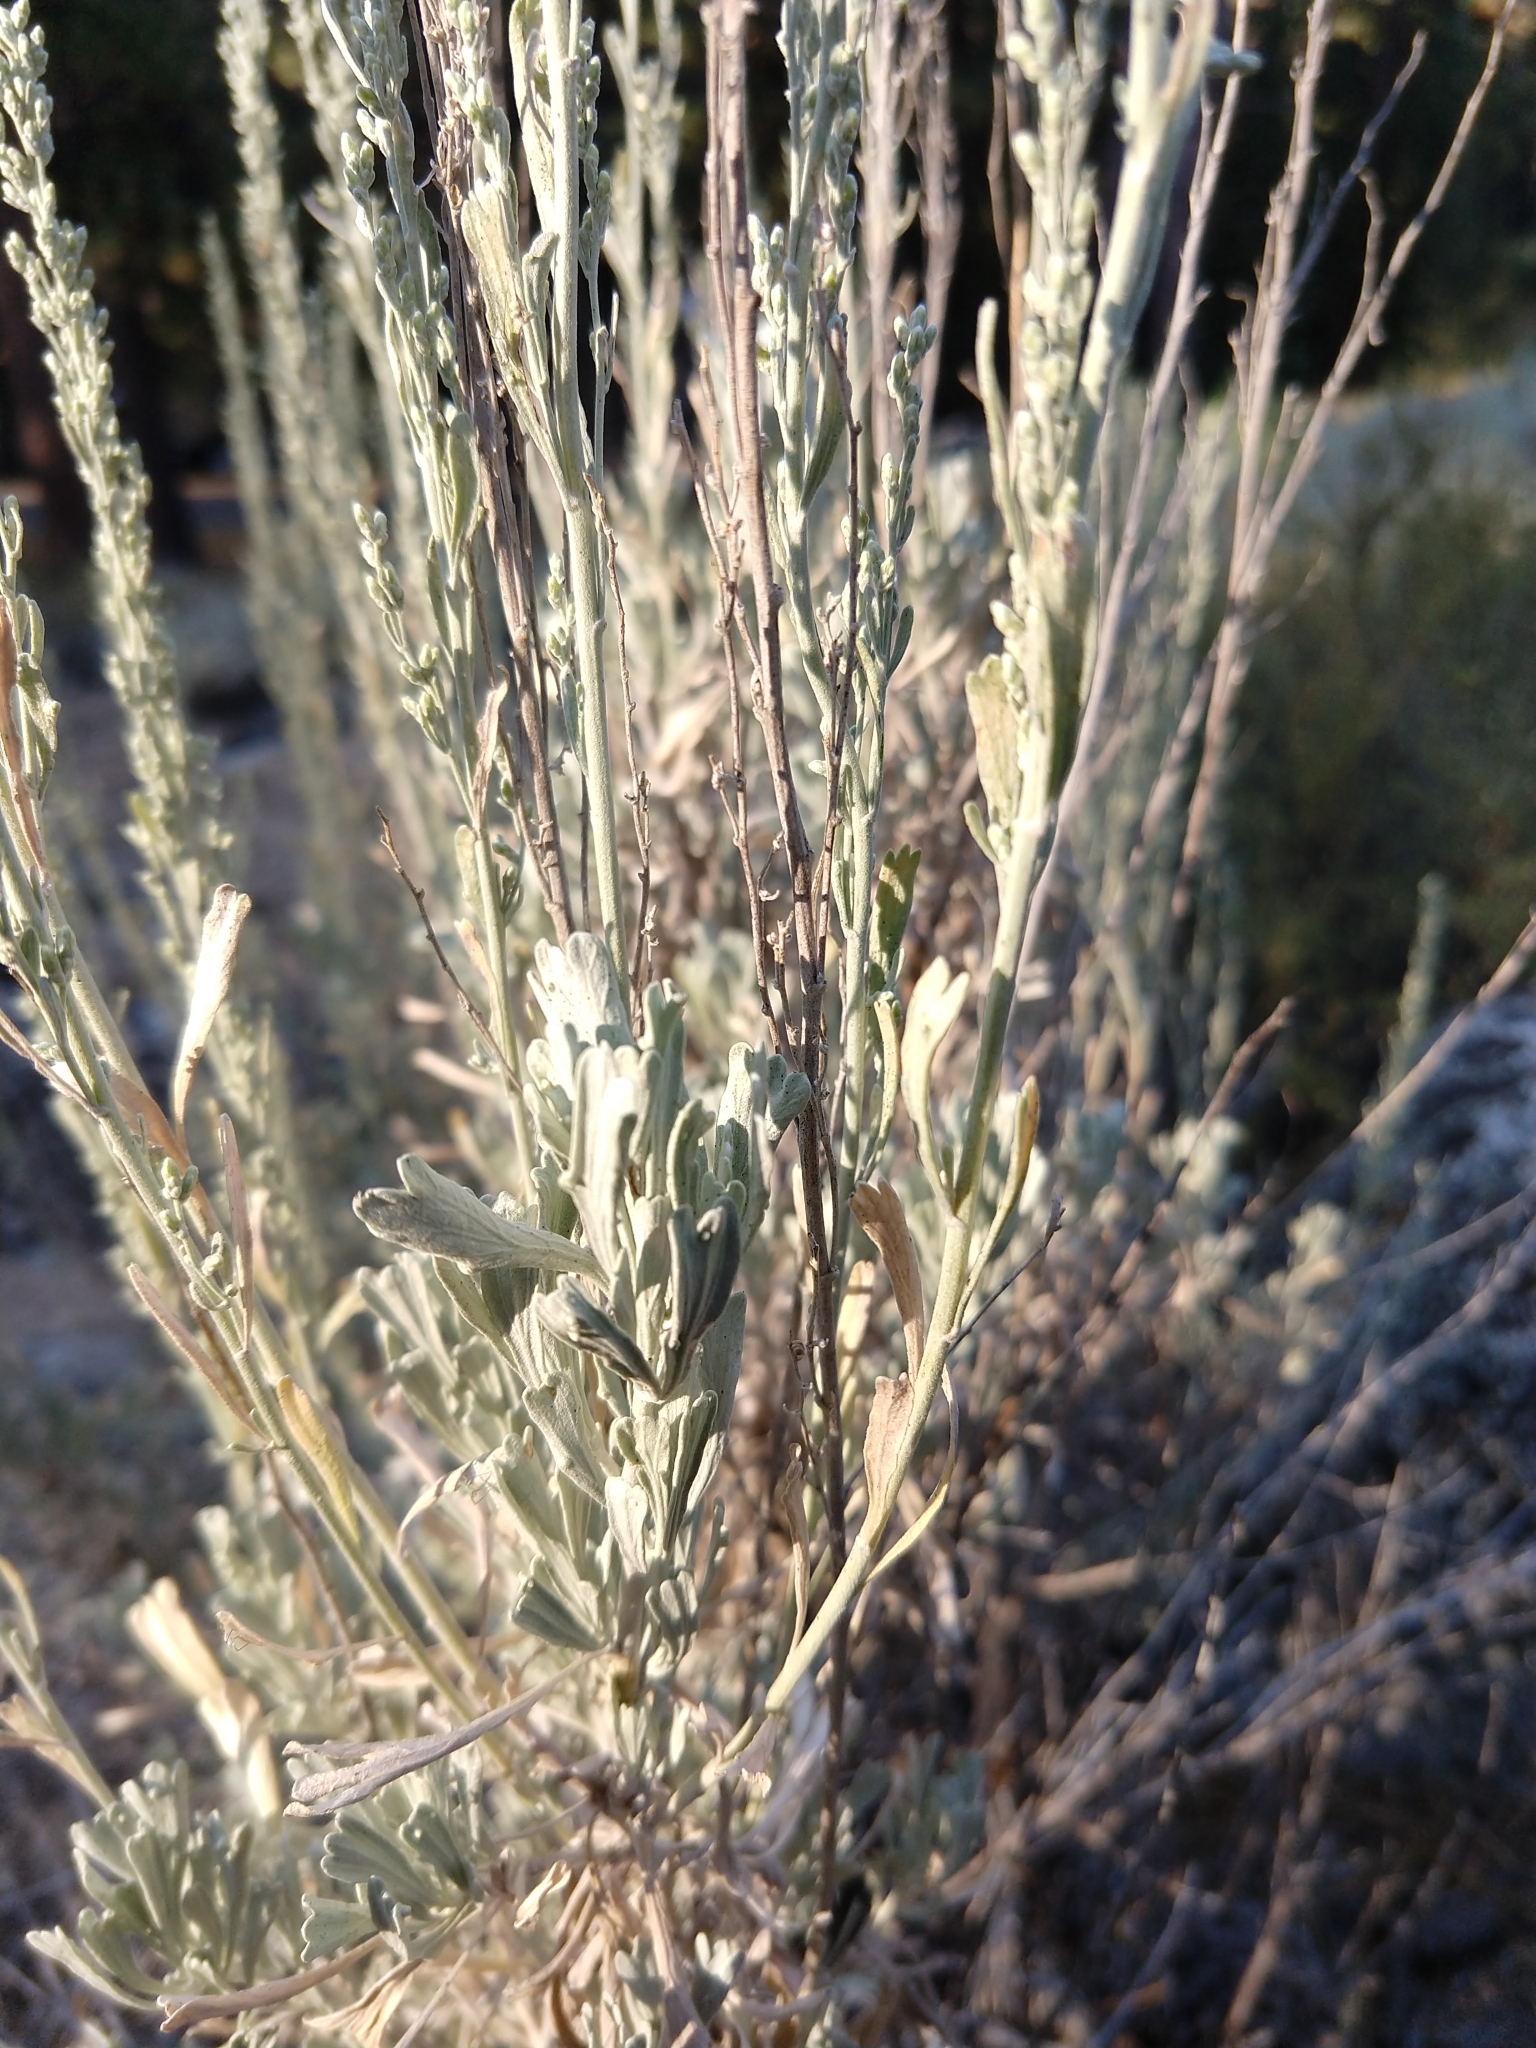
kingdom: Plantae
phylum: Tracheophyta
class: Magnoliopsida
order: Asterales
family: Asteraceae
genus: Artemisia
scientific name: Artemisia tridentata
